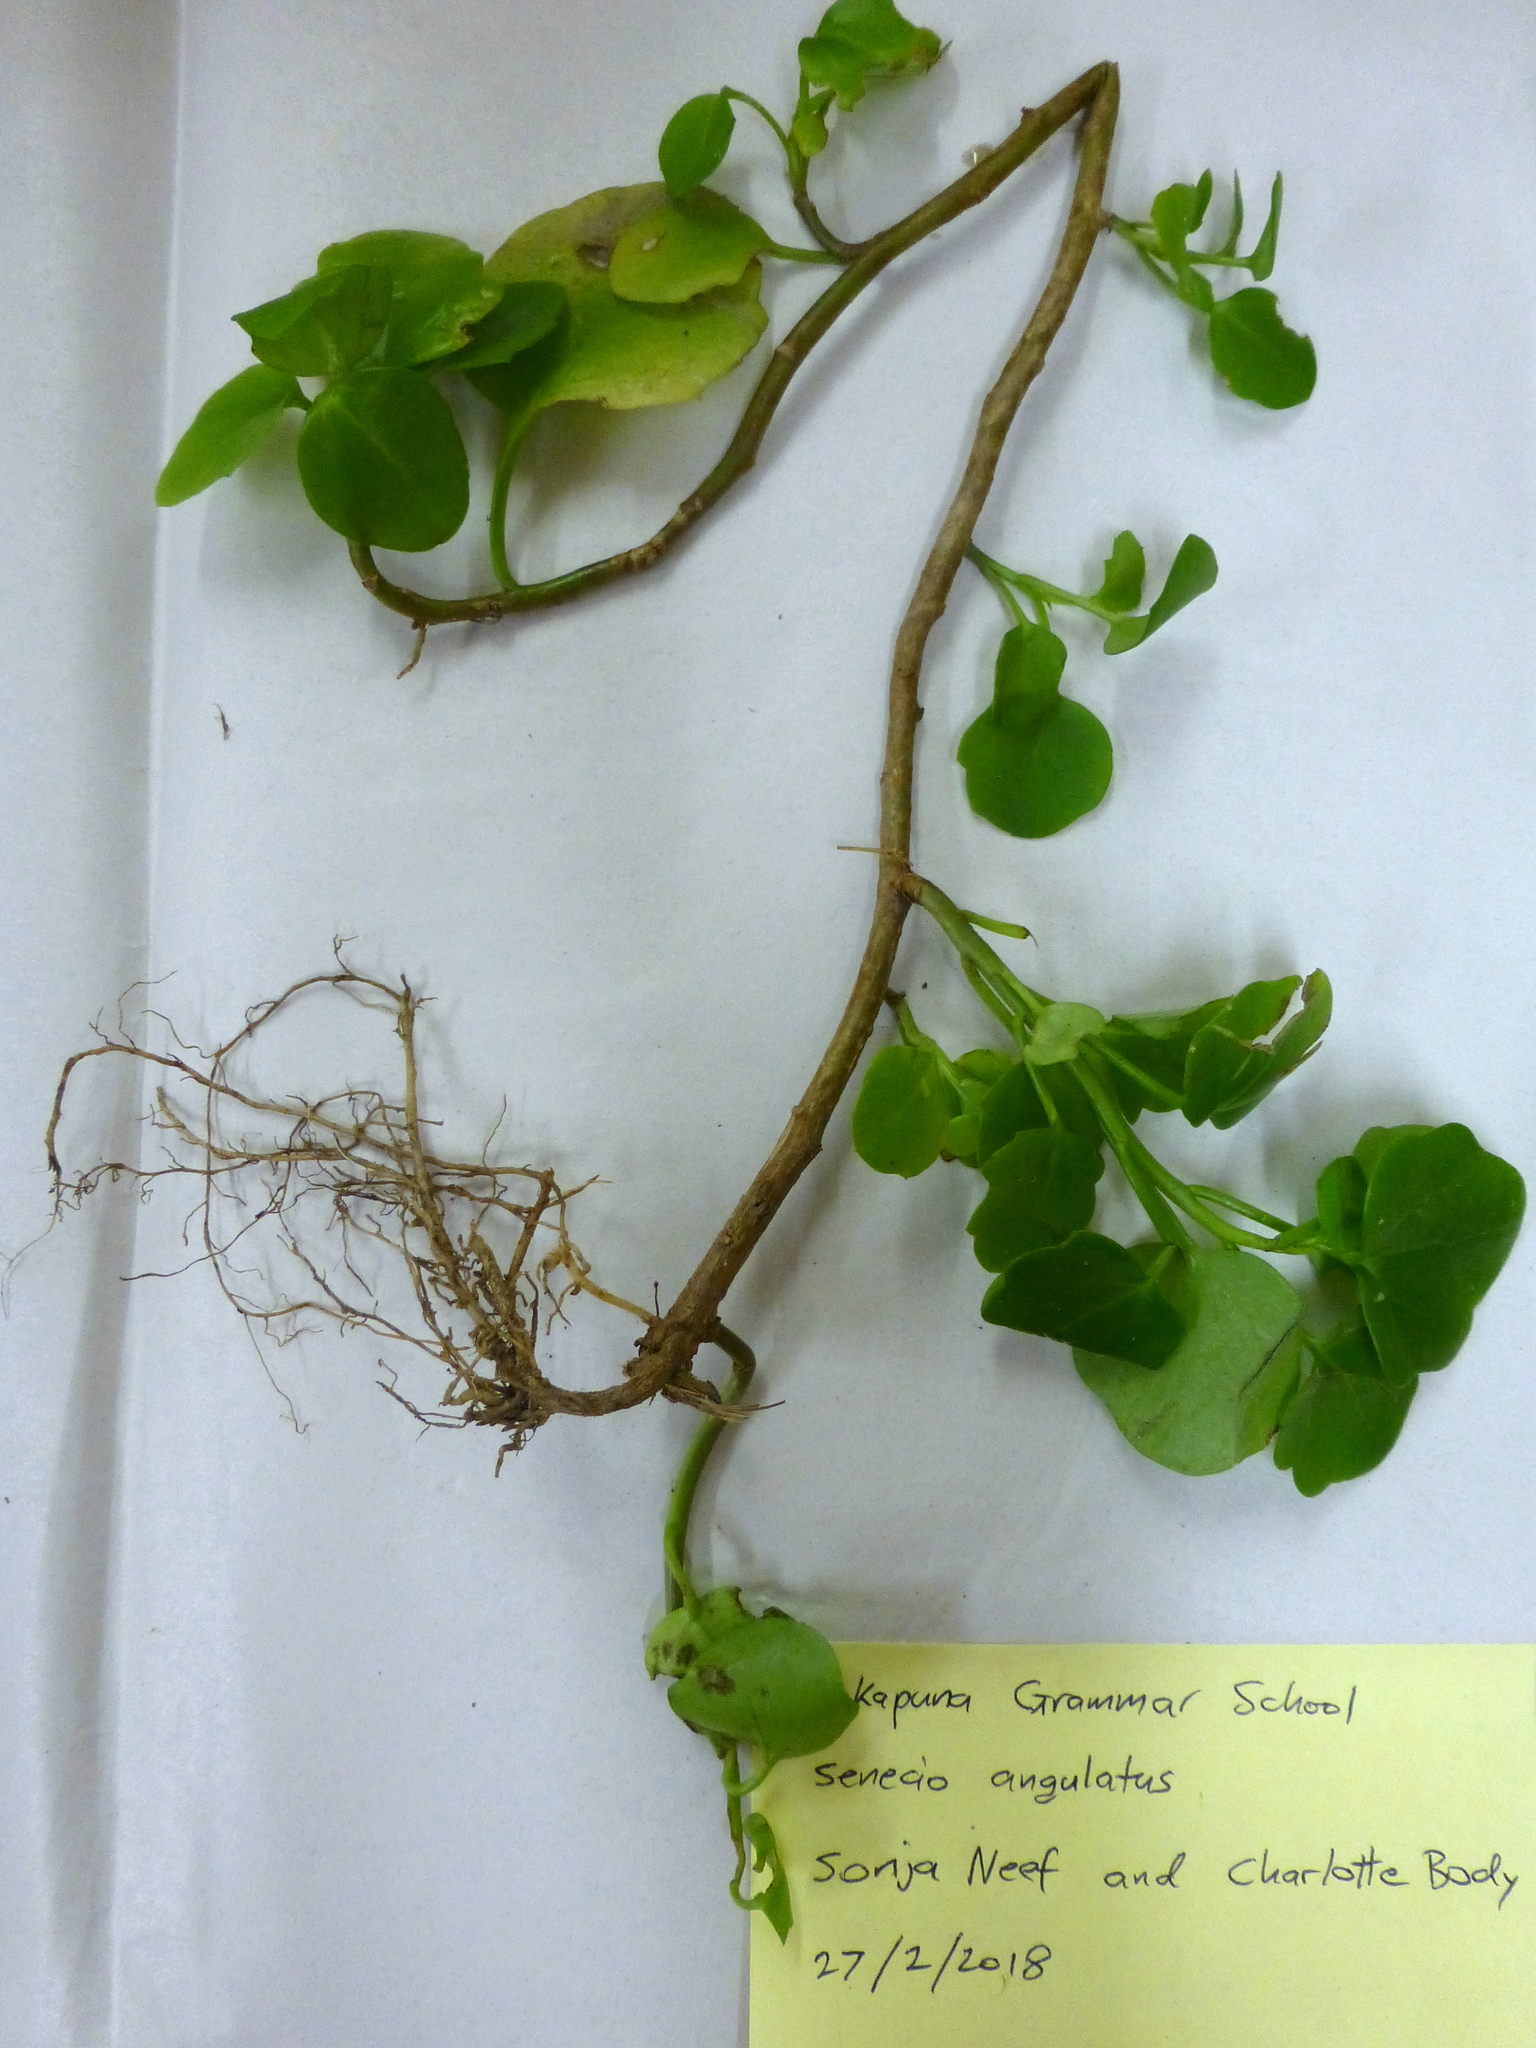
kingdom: Plantae
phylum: Tracheophyta
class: Magnoliopsida
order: Asterales
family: Asteraceae
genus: Senecio
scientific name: Senecio angulatus
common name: Climbing groundsel
